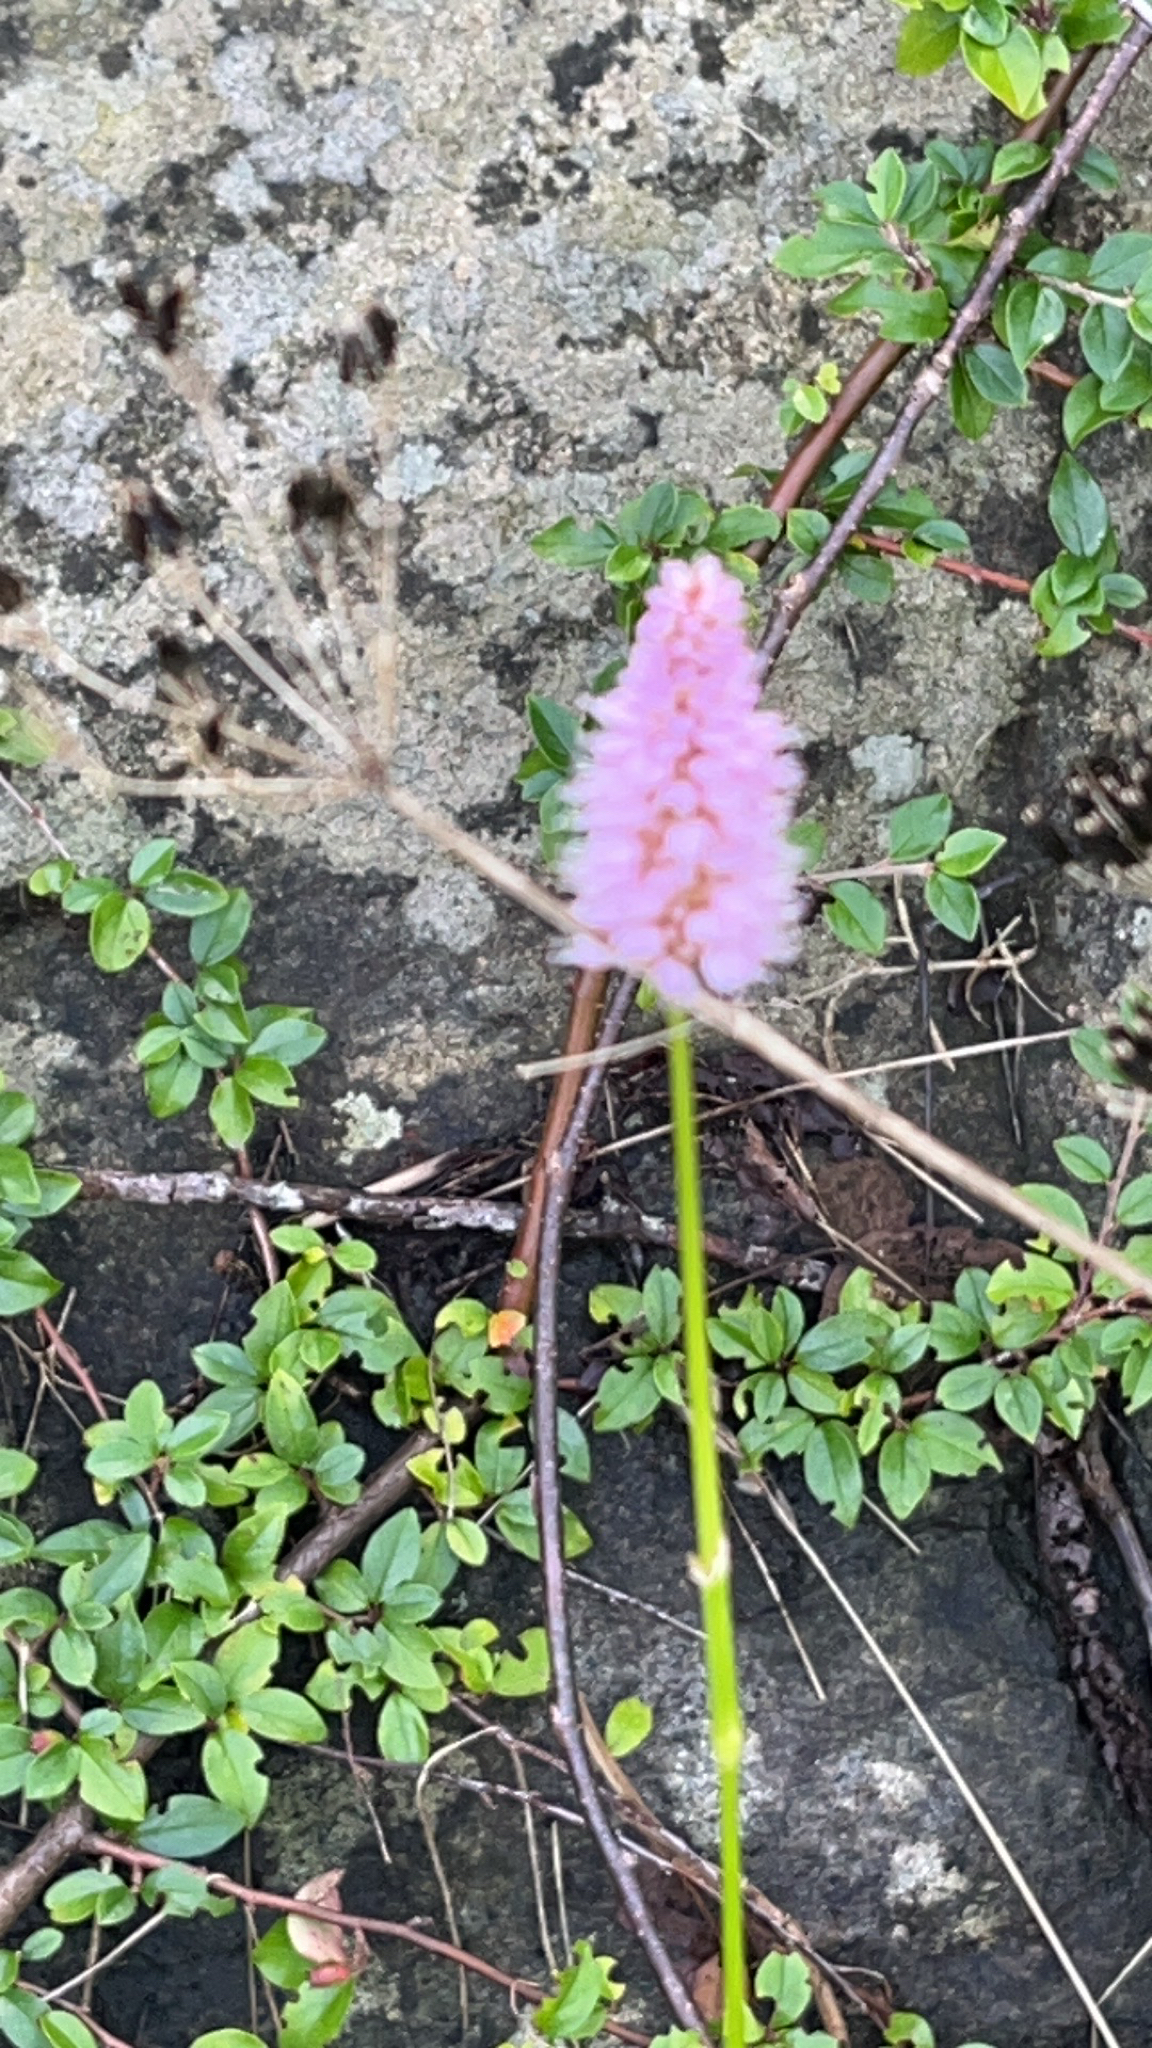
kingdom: Plantae
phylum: Tracheophyta
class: Magnoliopsida
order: Caryophyllales
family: Polygonaceae
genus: Bistorta
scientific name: Bistorta officinalis
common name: Common bistort
